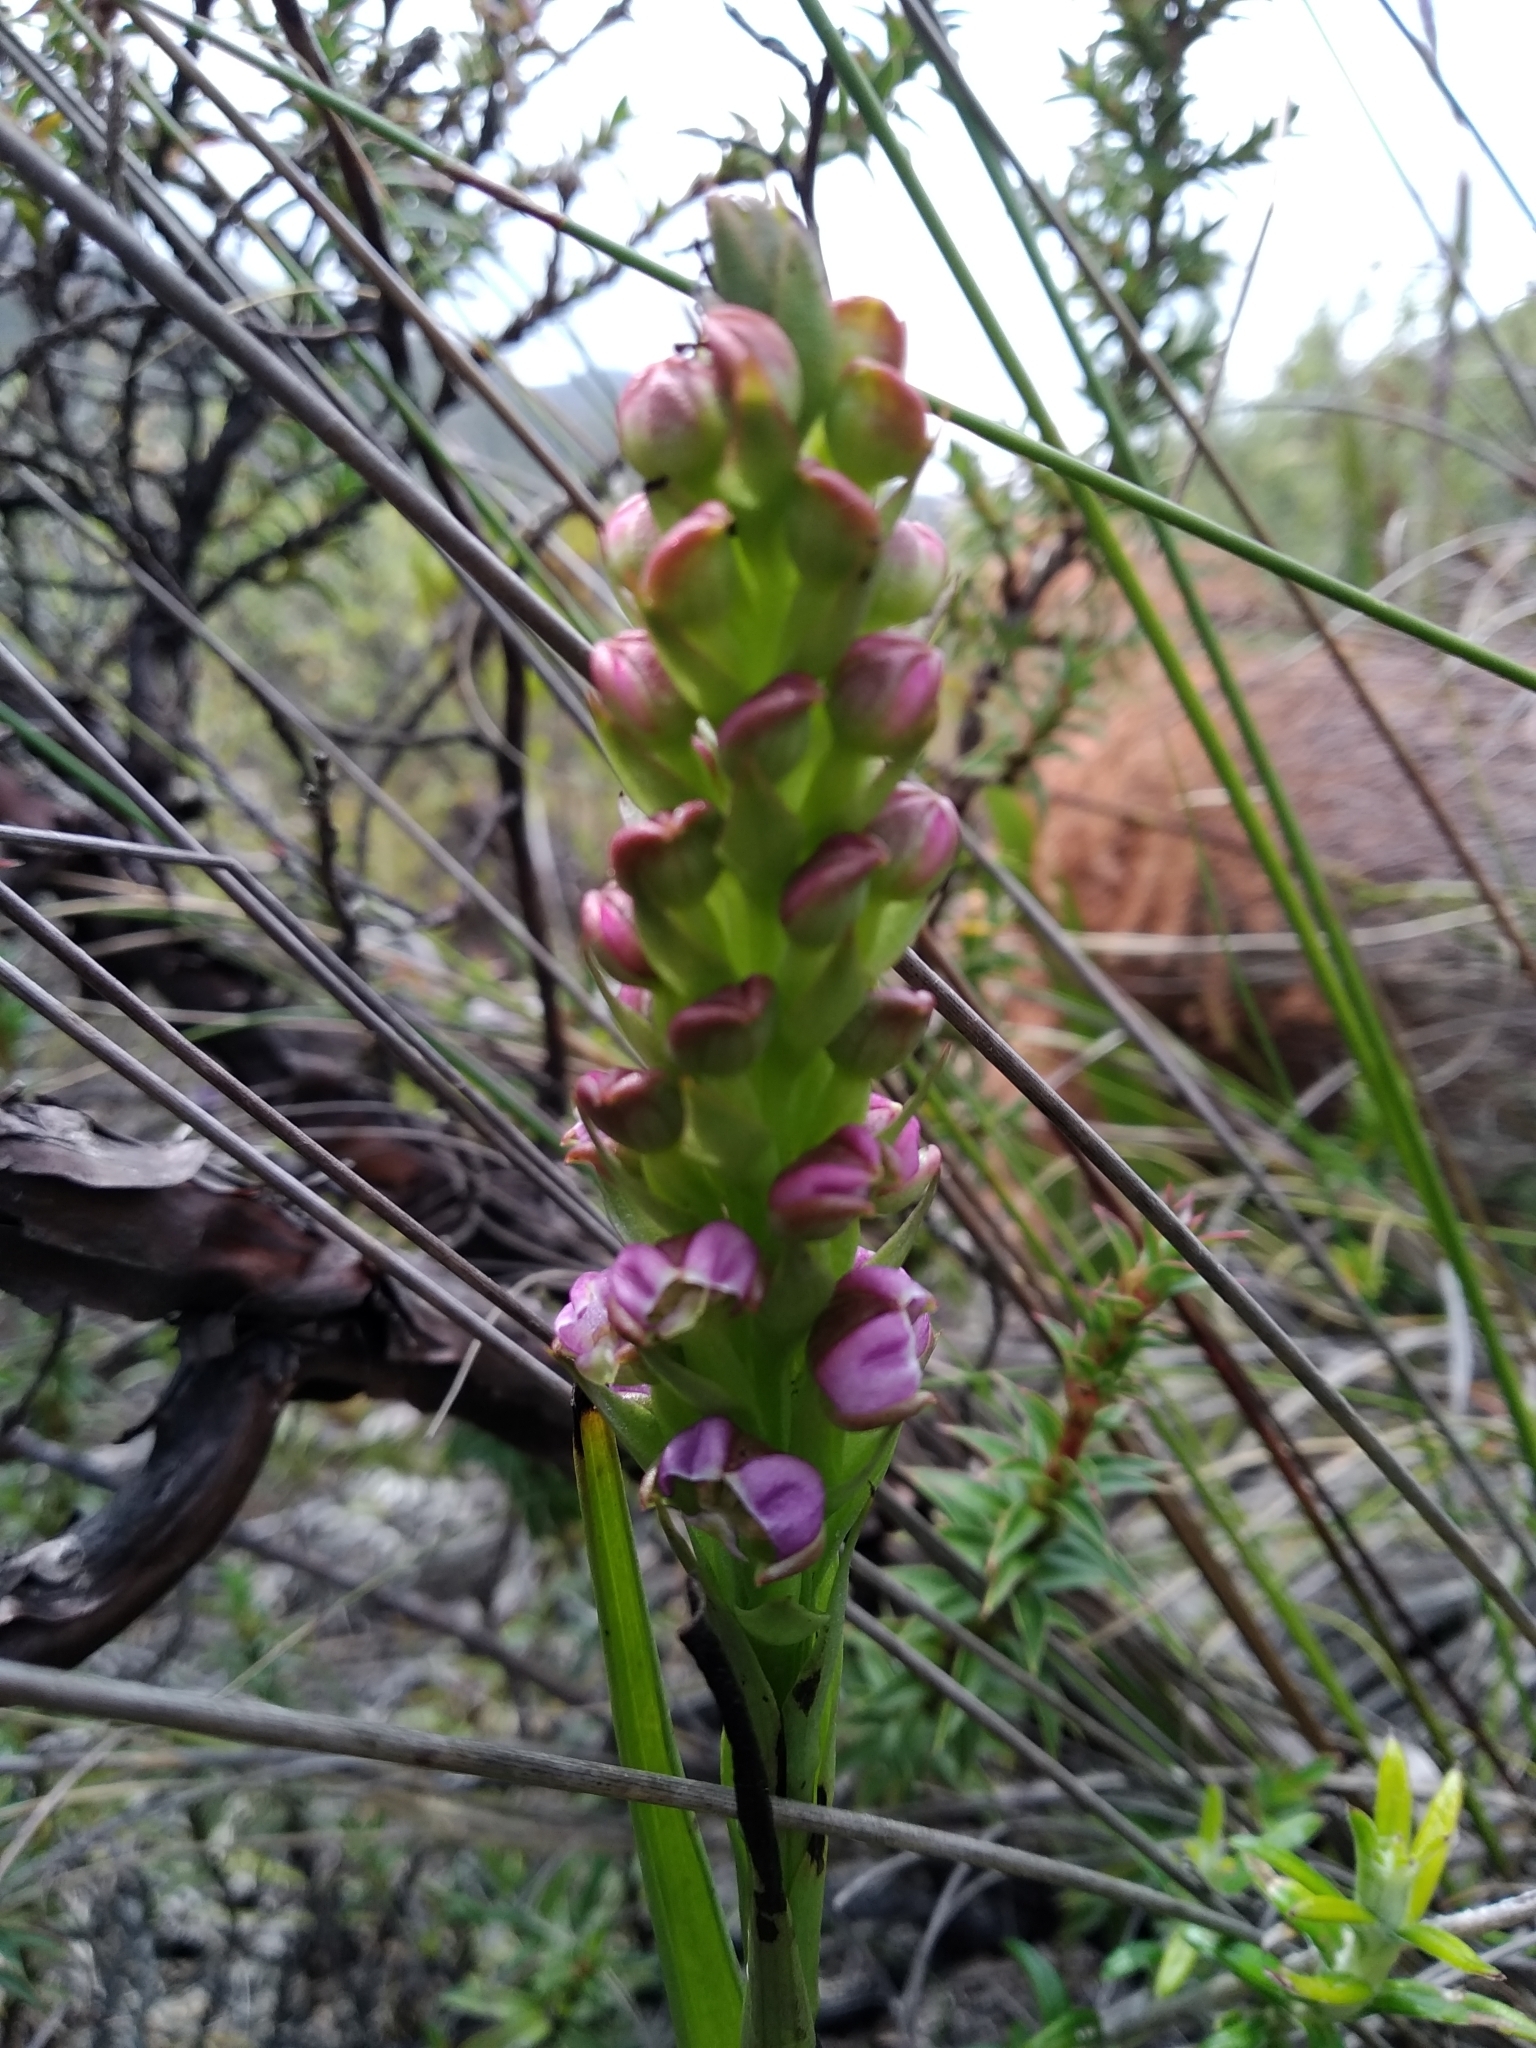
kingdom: Plantae
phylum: Tracheophyta
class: Liliopsida
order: Asparagales
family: Orchidaceae
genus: Evotella
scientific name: Evotella carnosa
